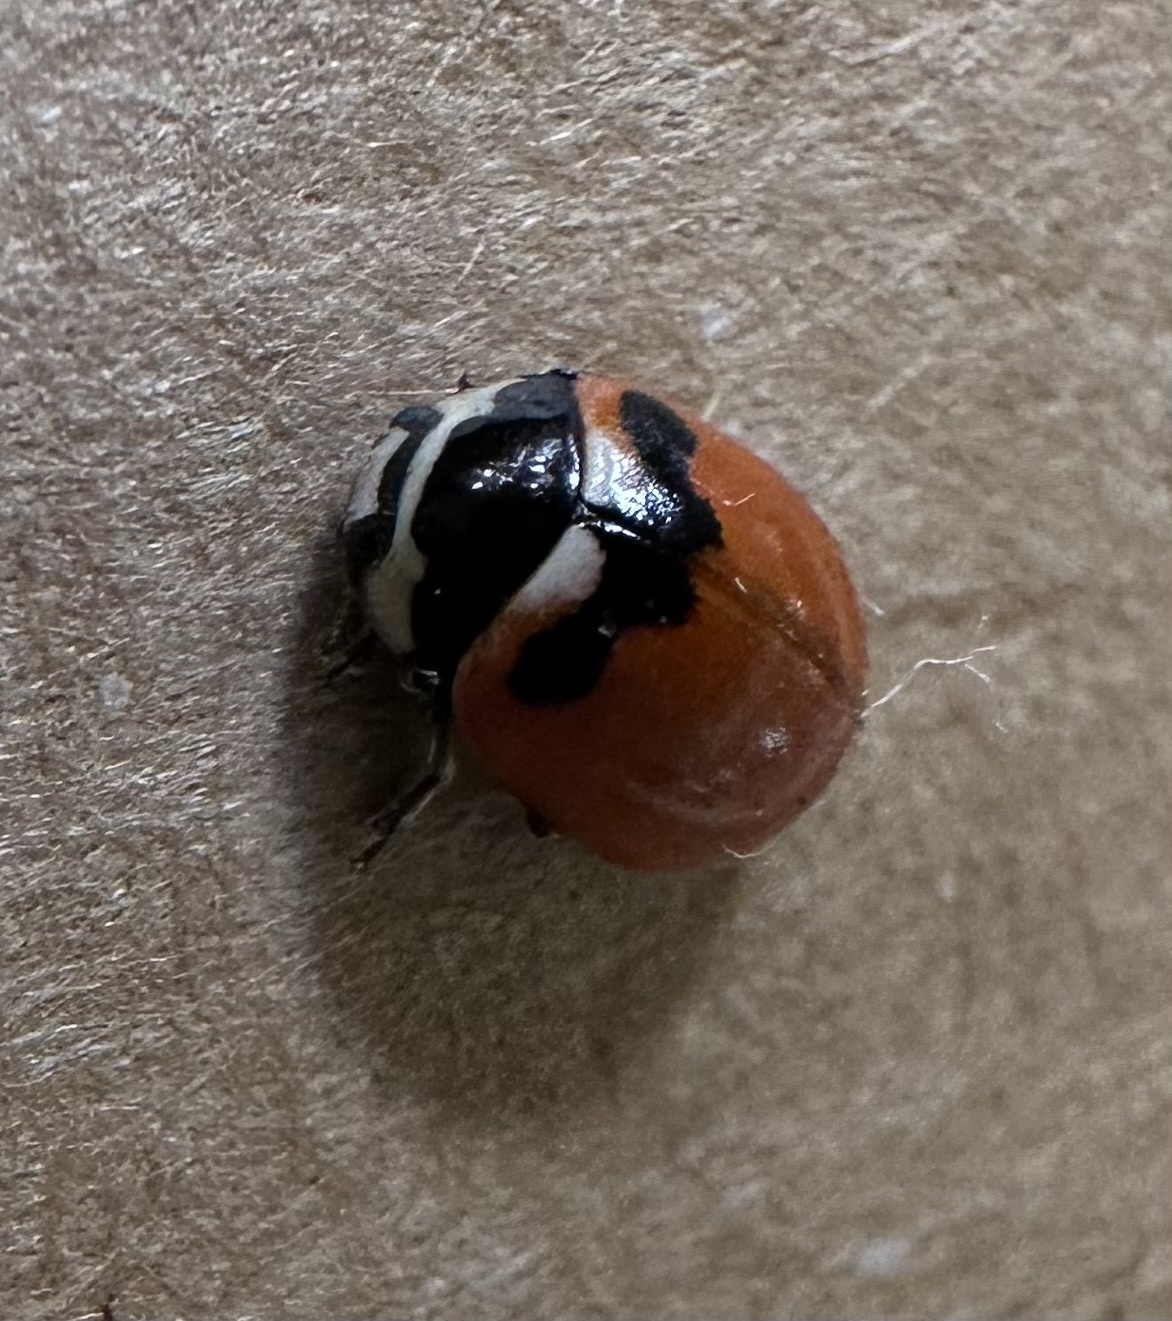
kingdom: Animalia
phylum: Arthropoda
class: Insecta
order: Coleoptera
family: Coccinellidae
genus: Coccinella
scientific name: Coccinella trifasciata
